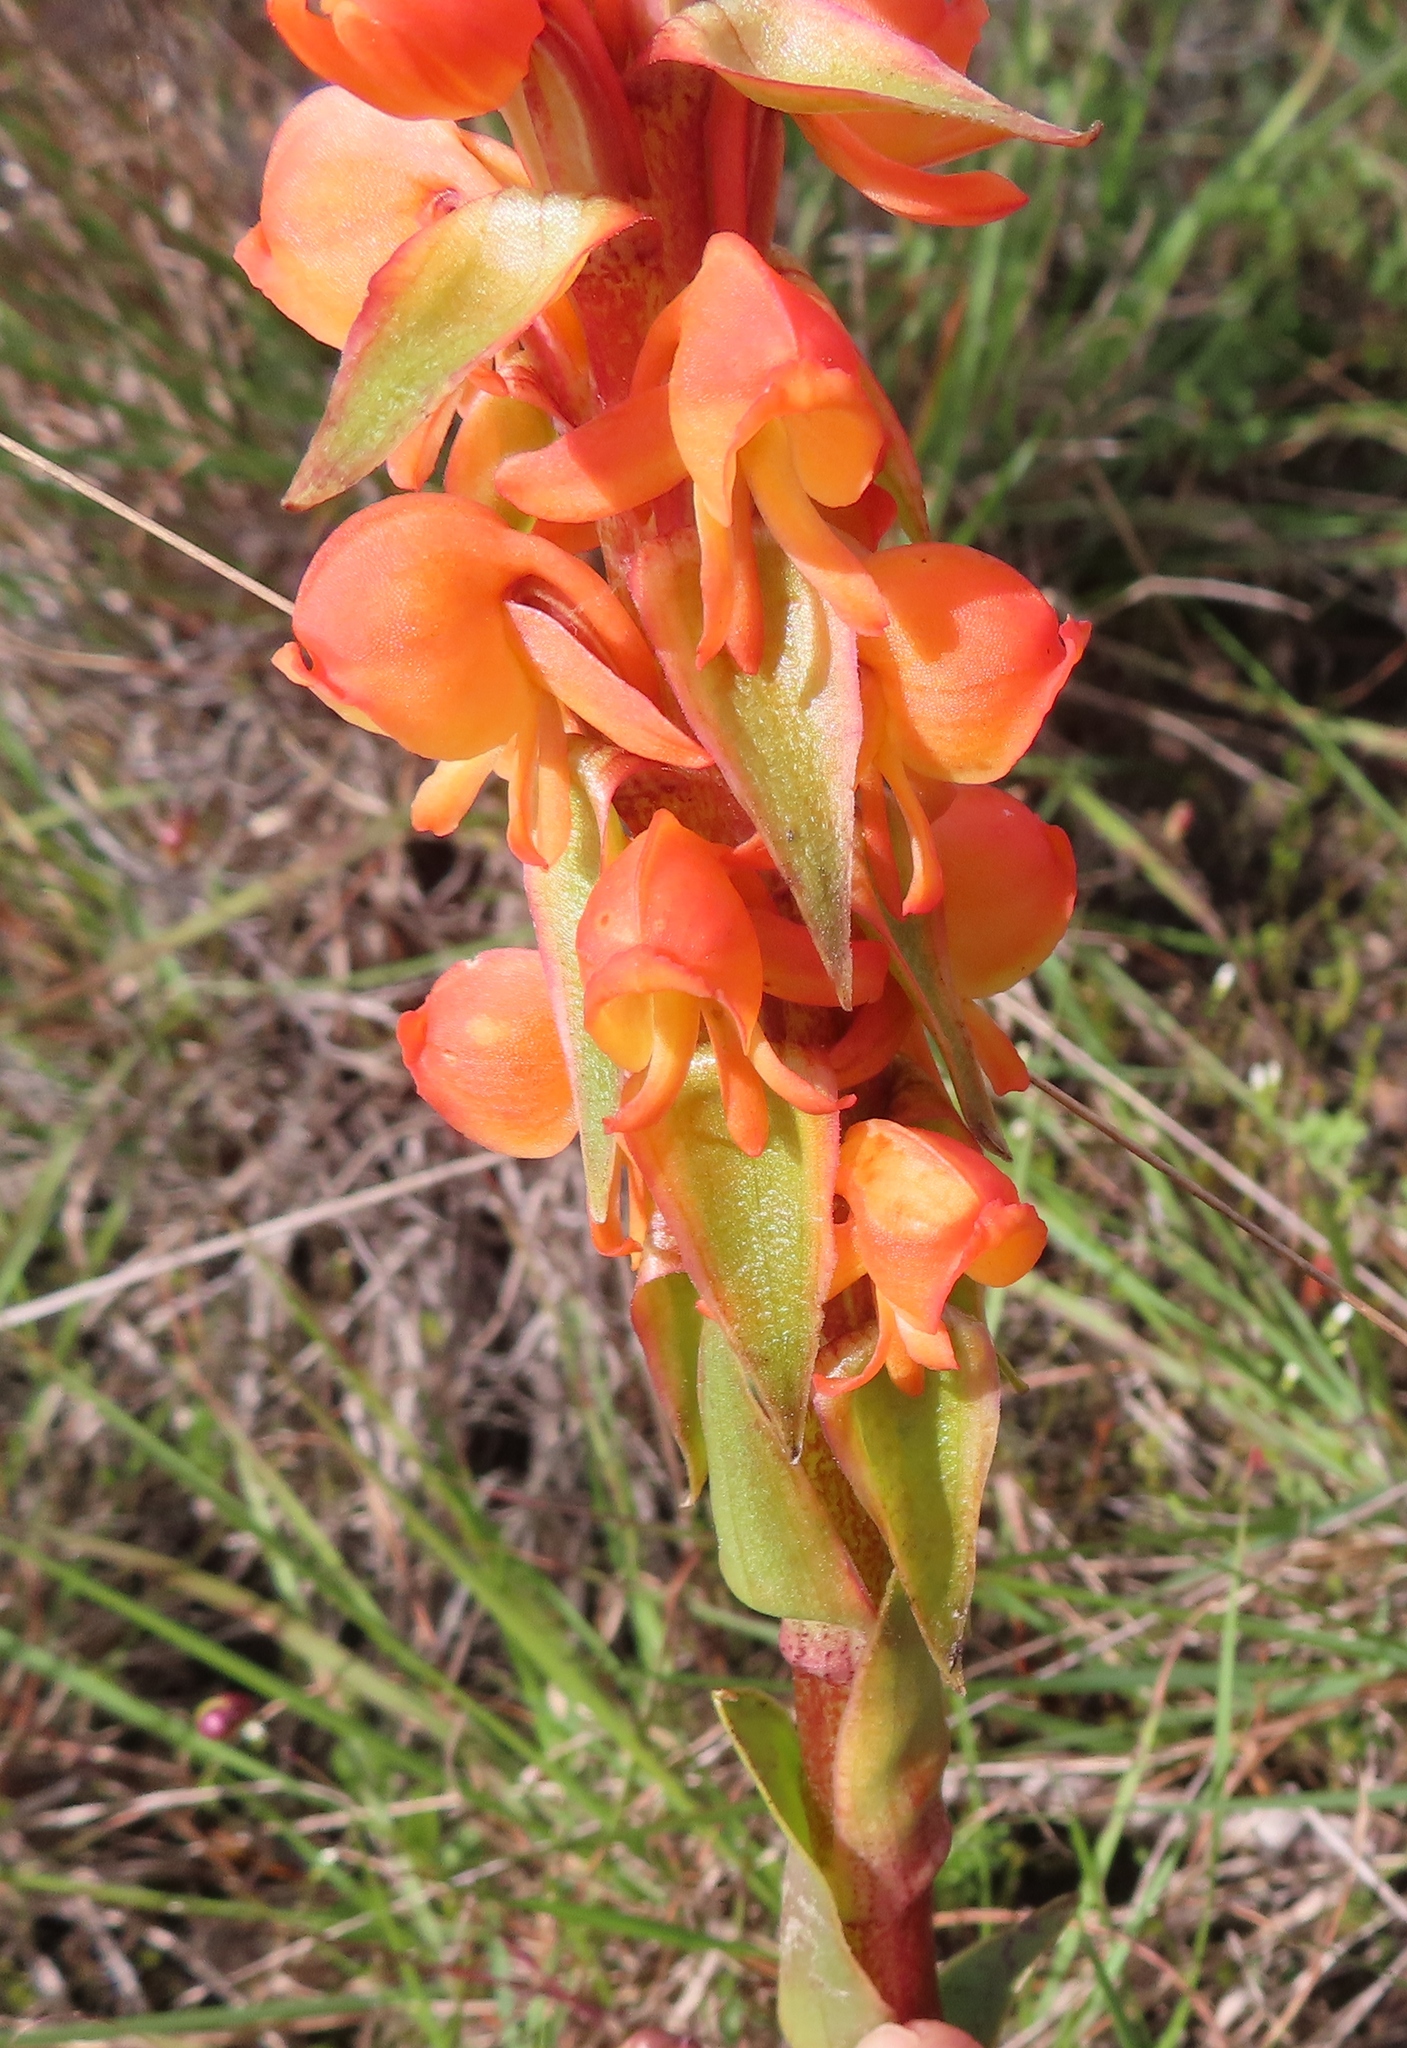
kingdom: Plantae
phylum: Tracheophyta
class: Liliopsida
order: Asparagales
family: Orchidaceae
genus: Satyrium
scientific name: Satyrium coriifolium
